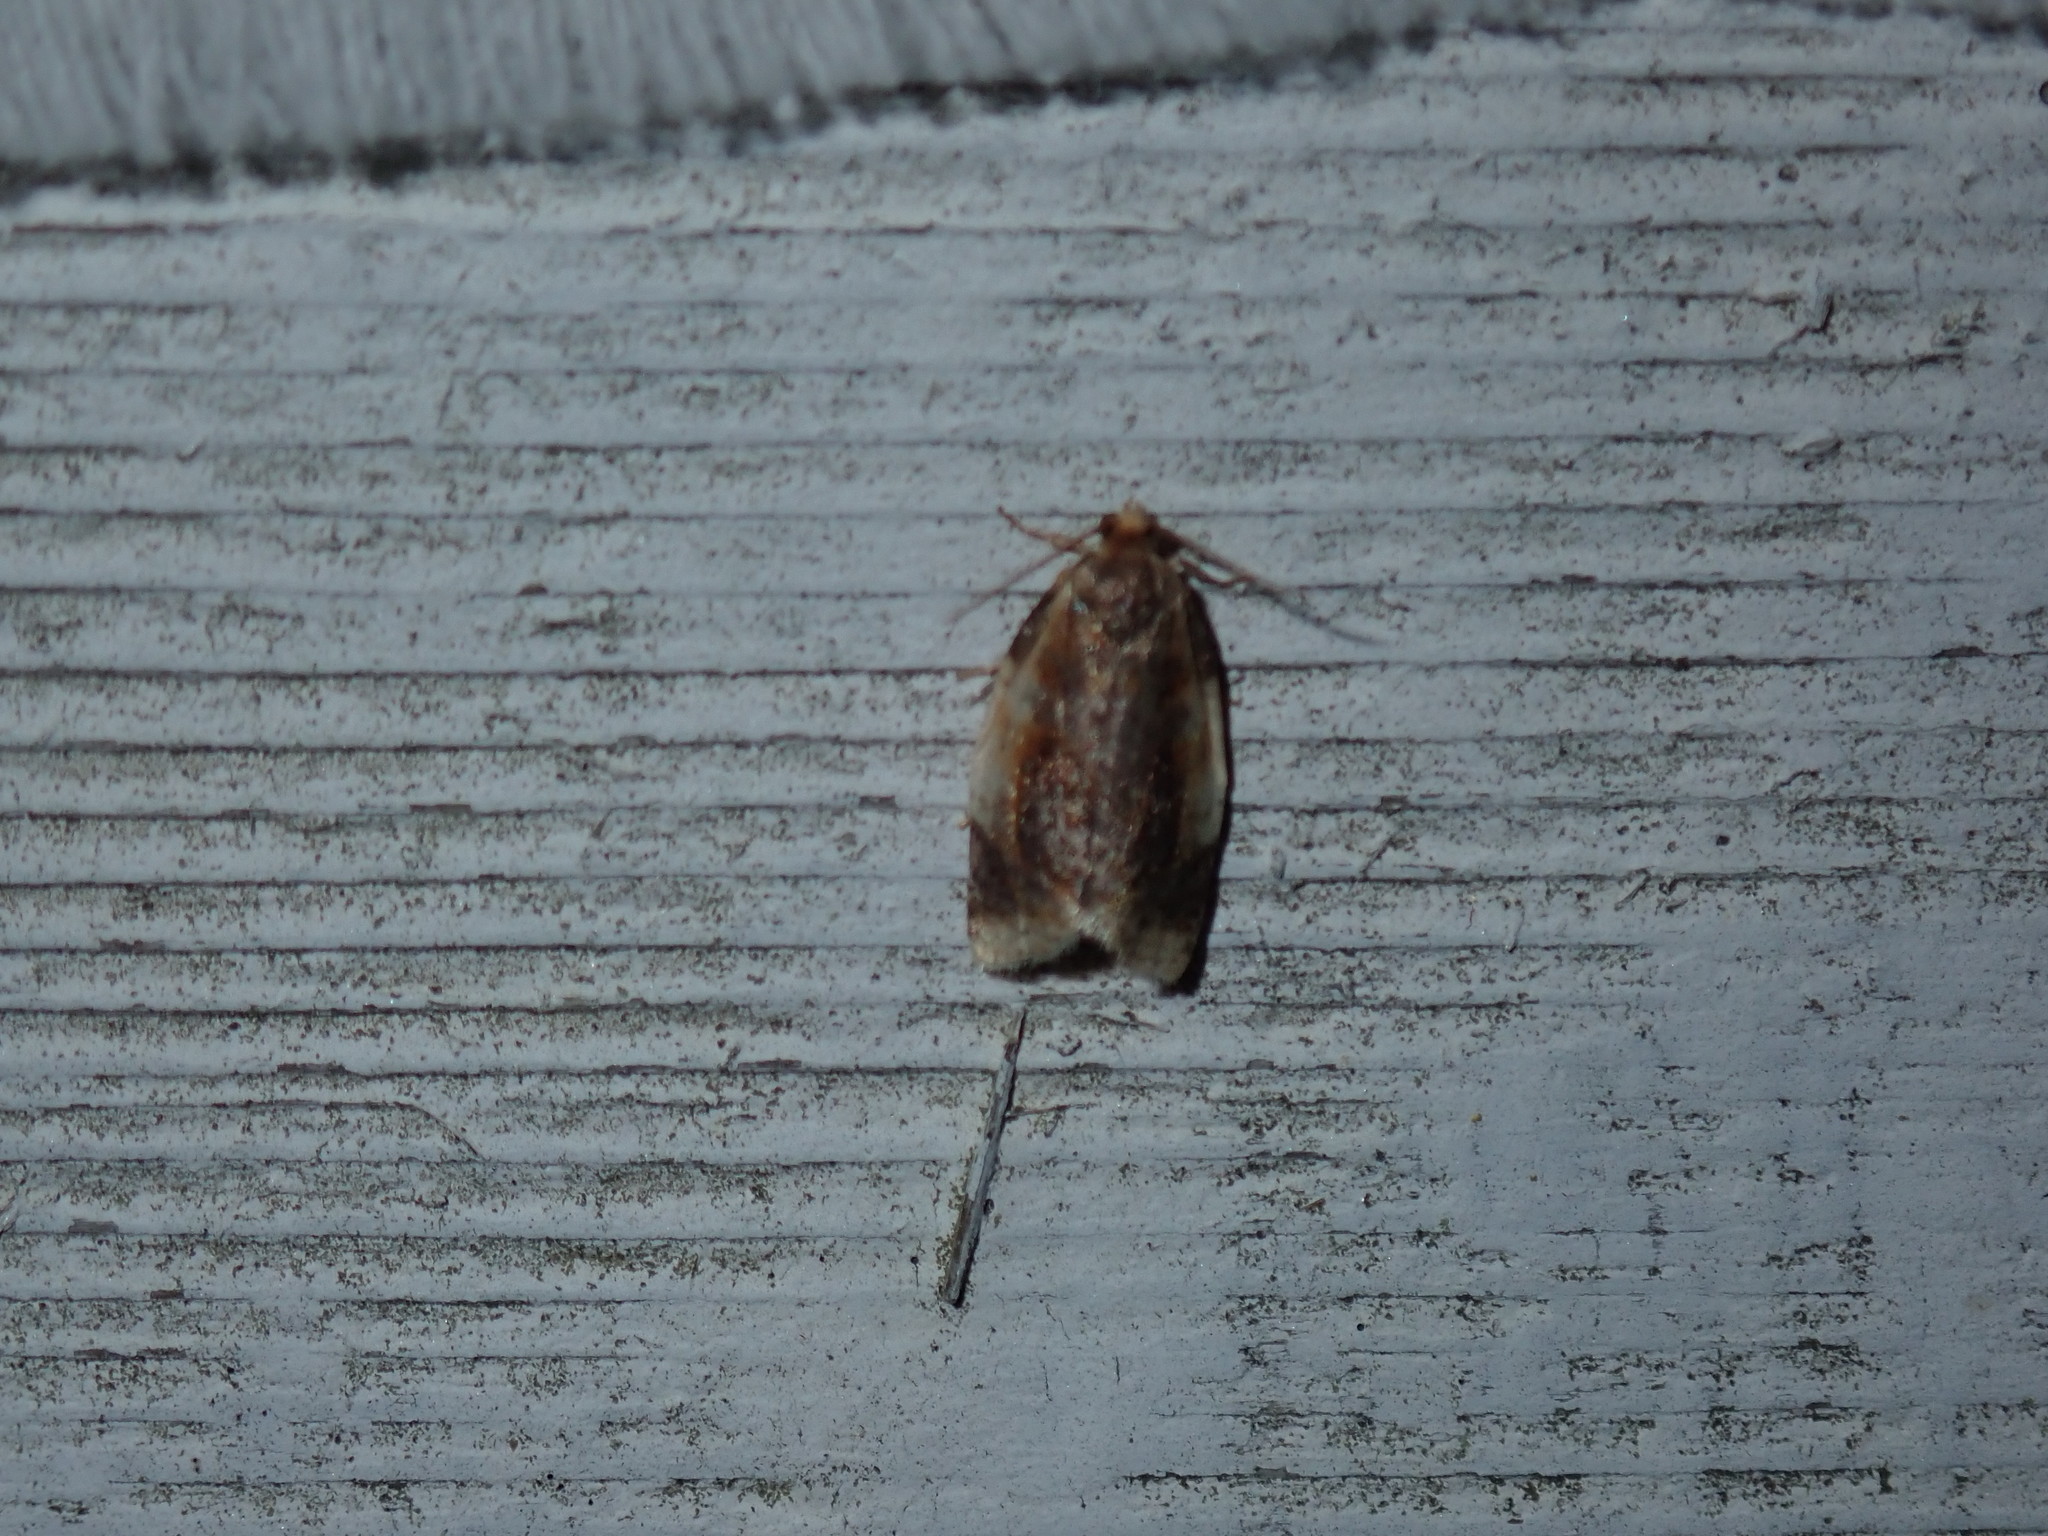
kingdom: Animalia
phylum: Arthropoda
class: Insecta
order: Lepidoptera
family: Tortricidae
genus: Clepsis
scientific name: Clepsis melaleucanus
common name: American apple tortrix
